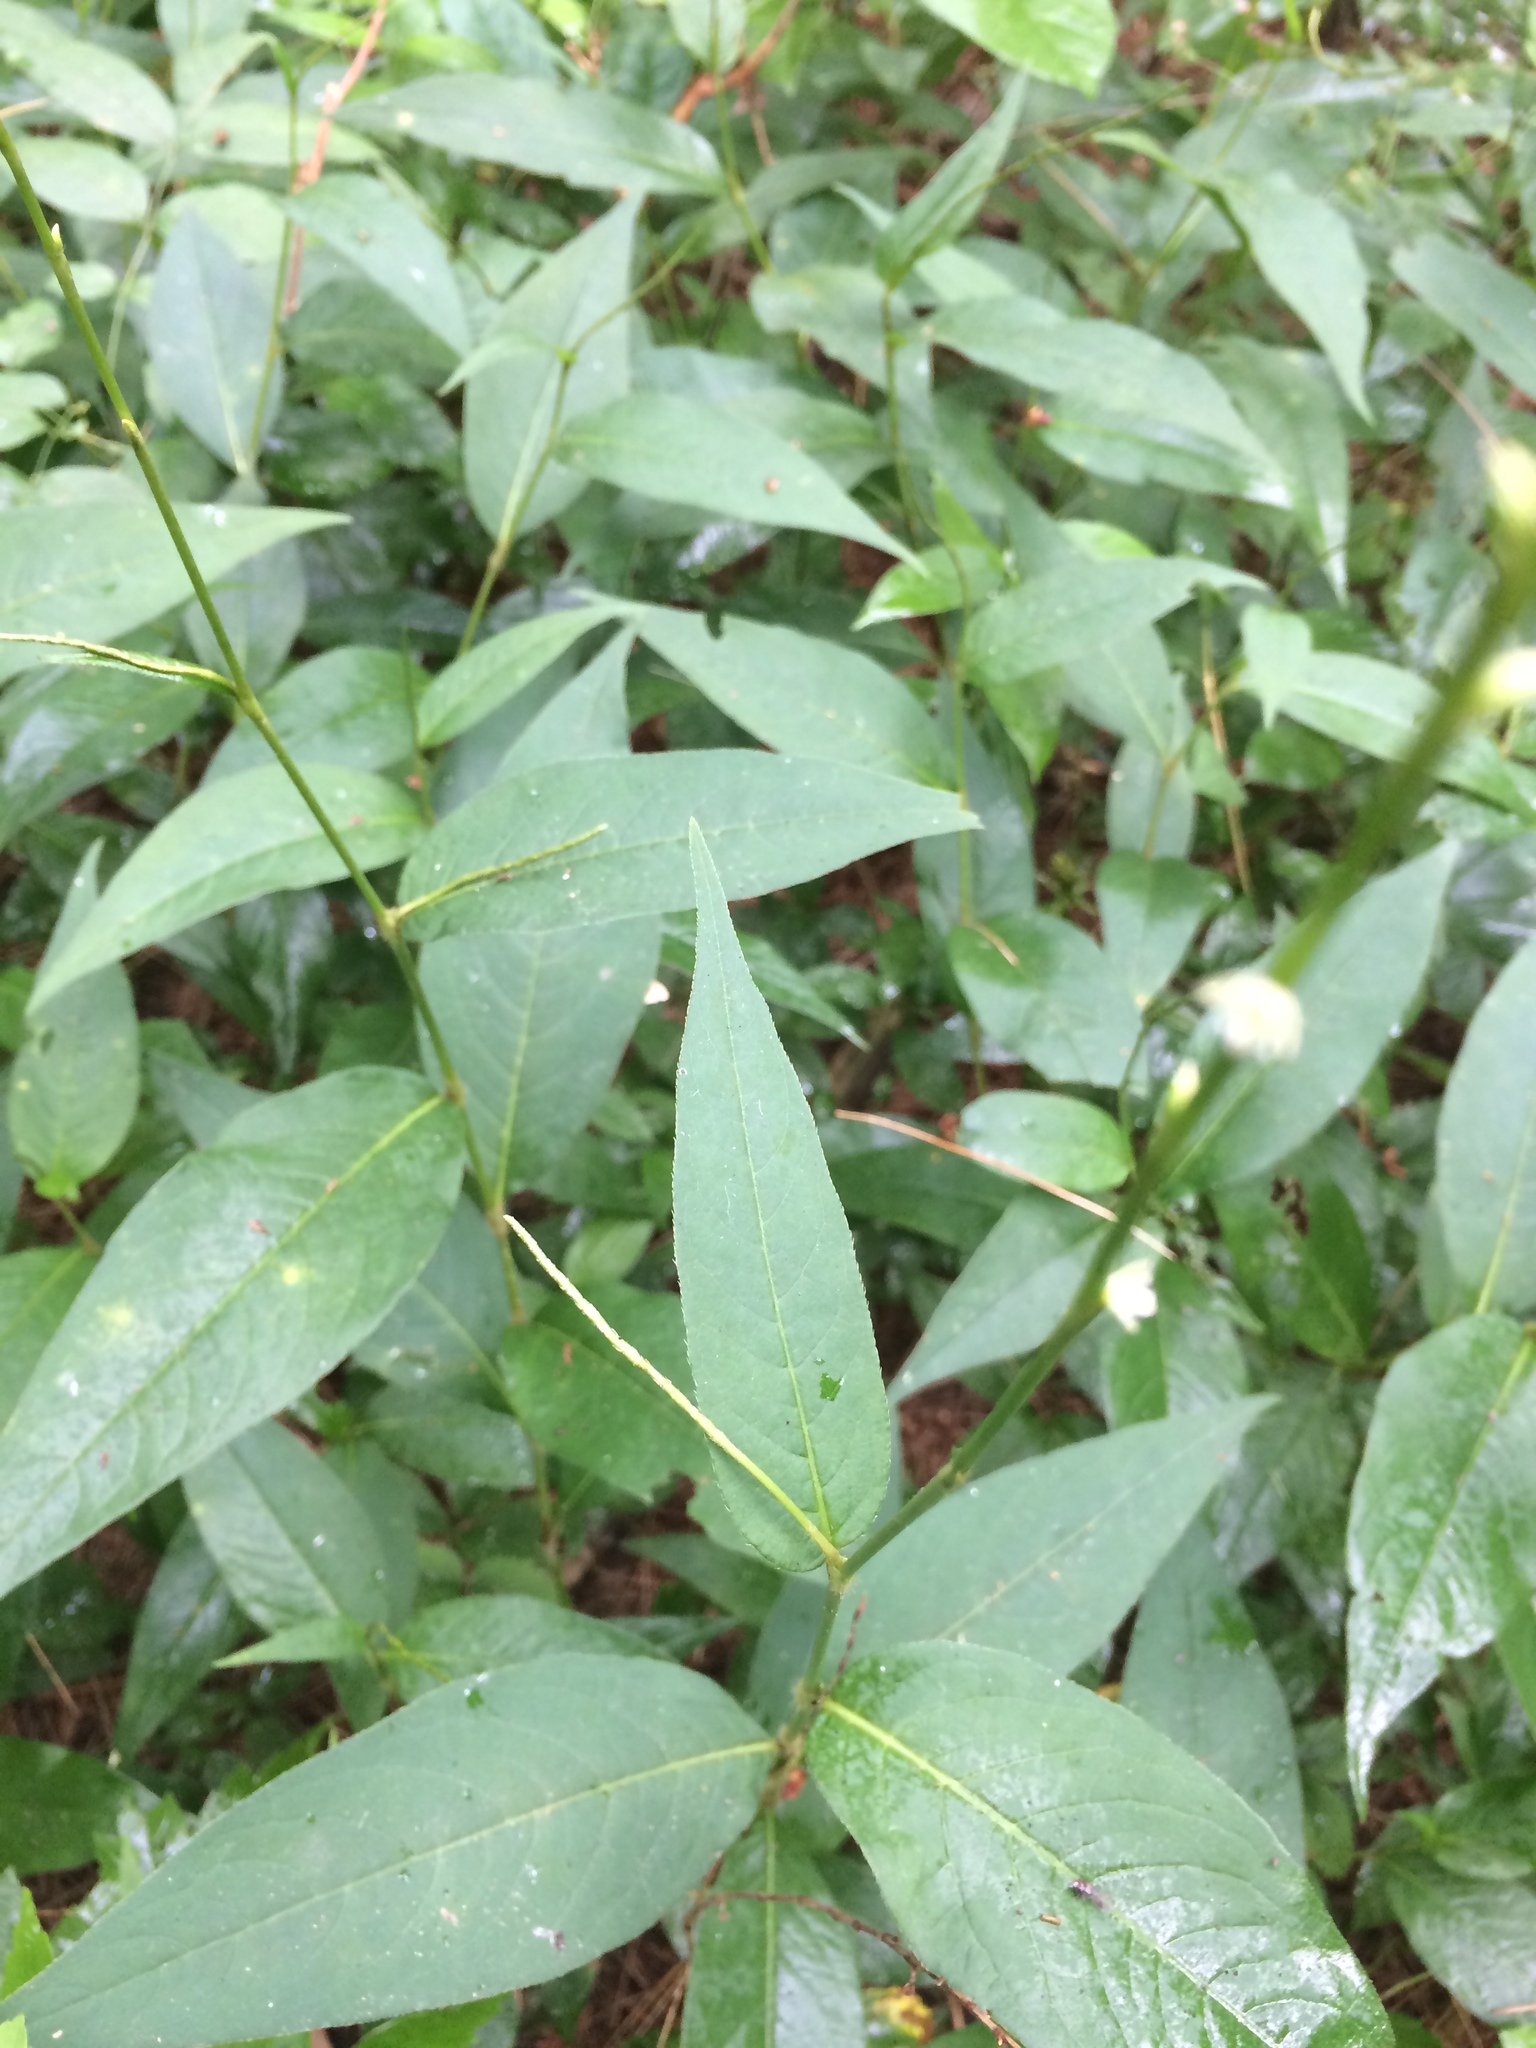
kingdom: Plantae
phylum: Tracheophyta
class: Magnoliopsida
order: Caryophyllales
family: Polygonaceae
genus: Persicaria
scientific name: Persicaria virginiana
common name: Jumpseed
